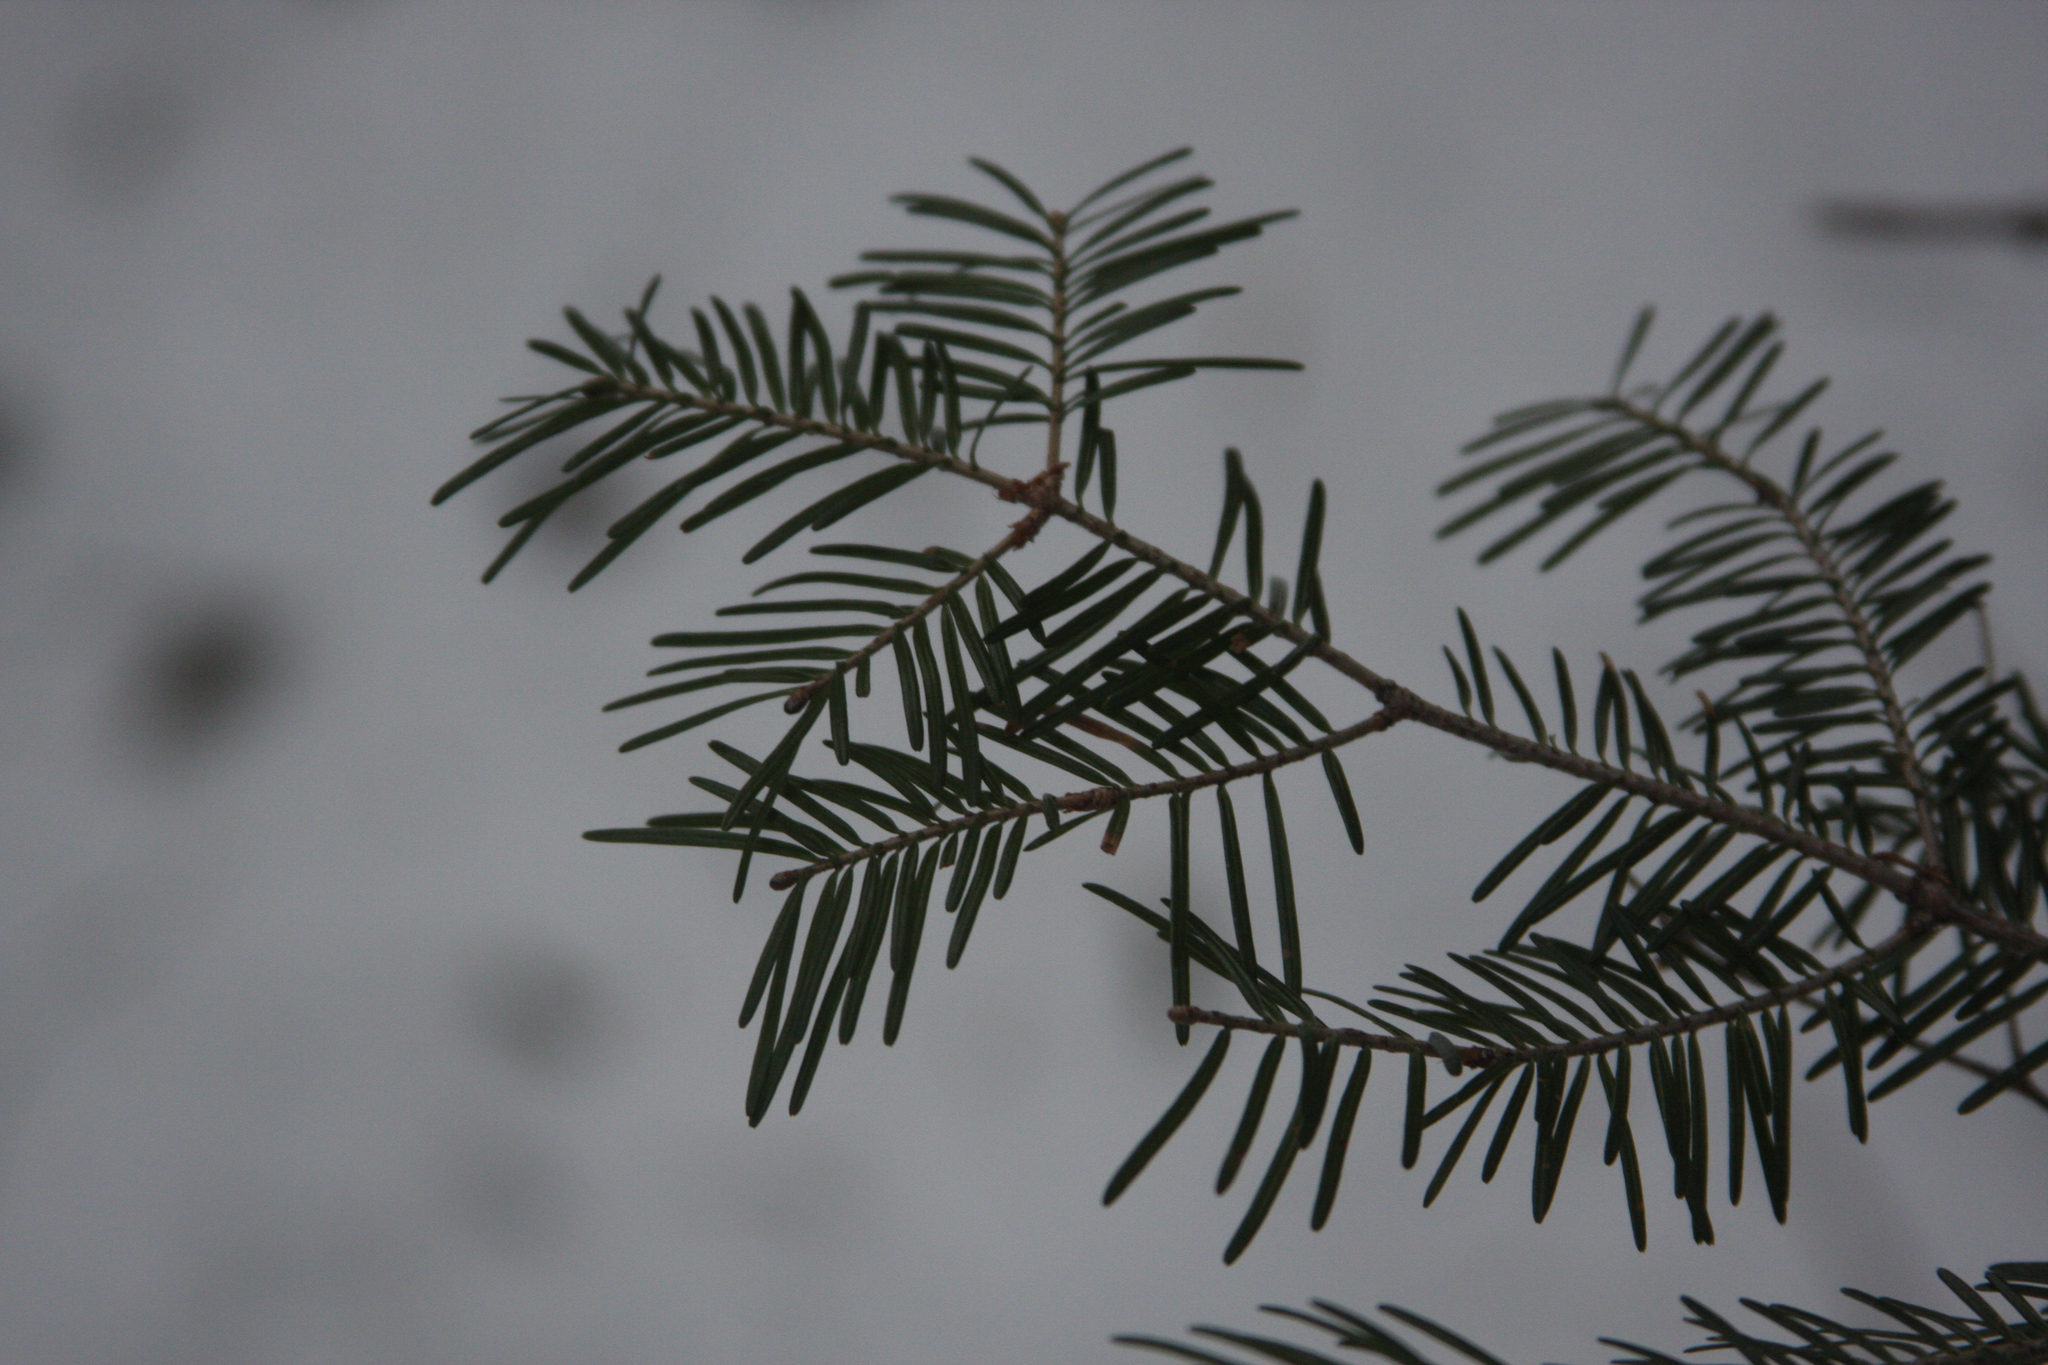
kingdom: Plantae
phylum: Tracheophyta
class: Pinopsida
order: Pinales
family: Pinaceae
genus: Abies
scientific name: Abies balsamea
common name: Balsam fir
